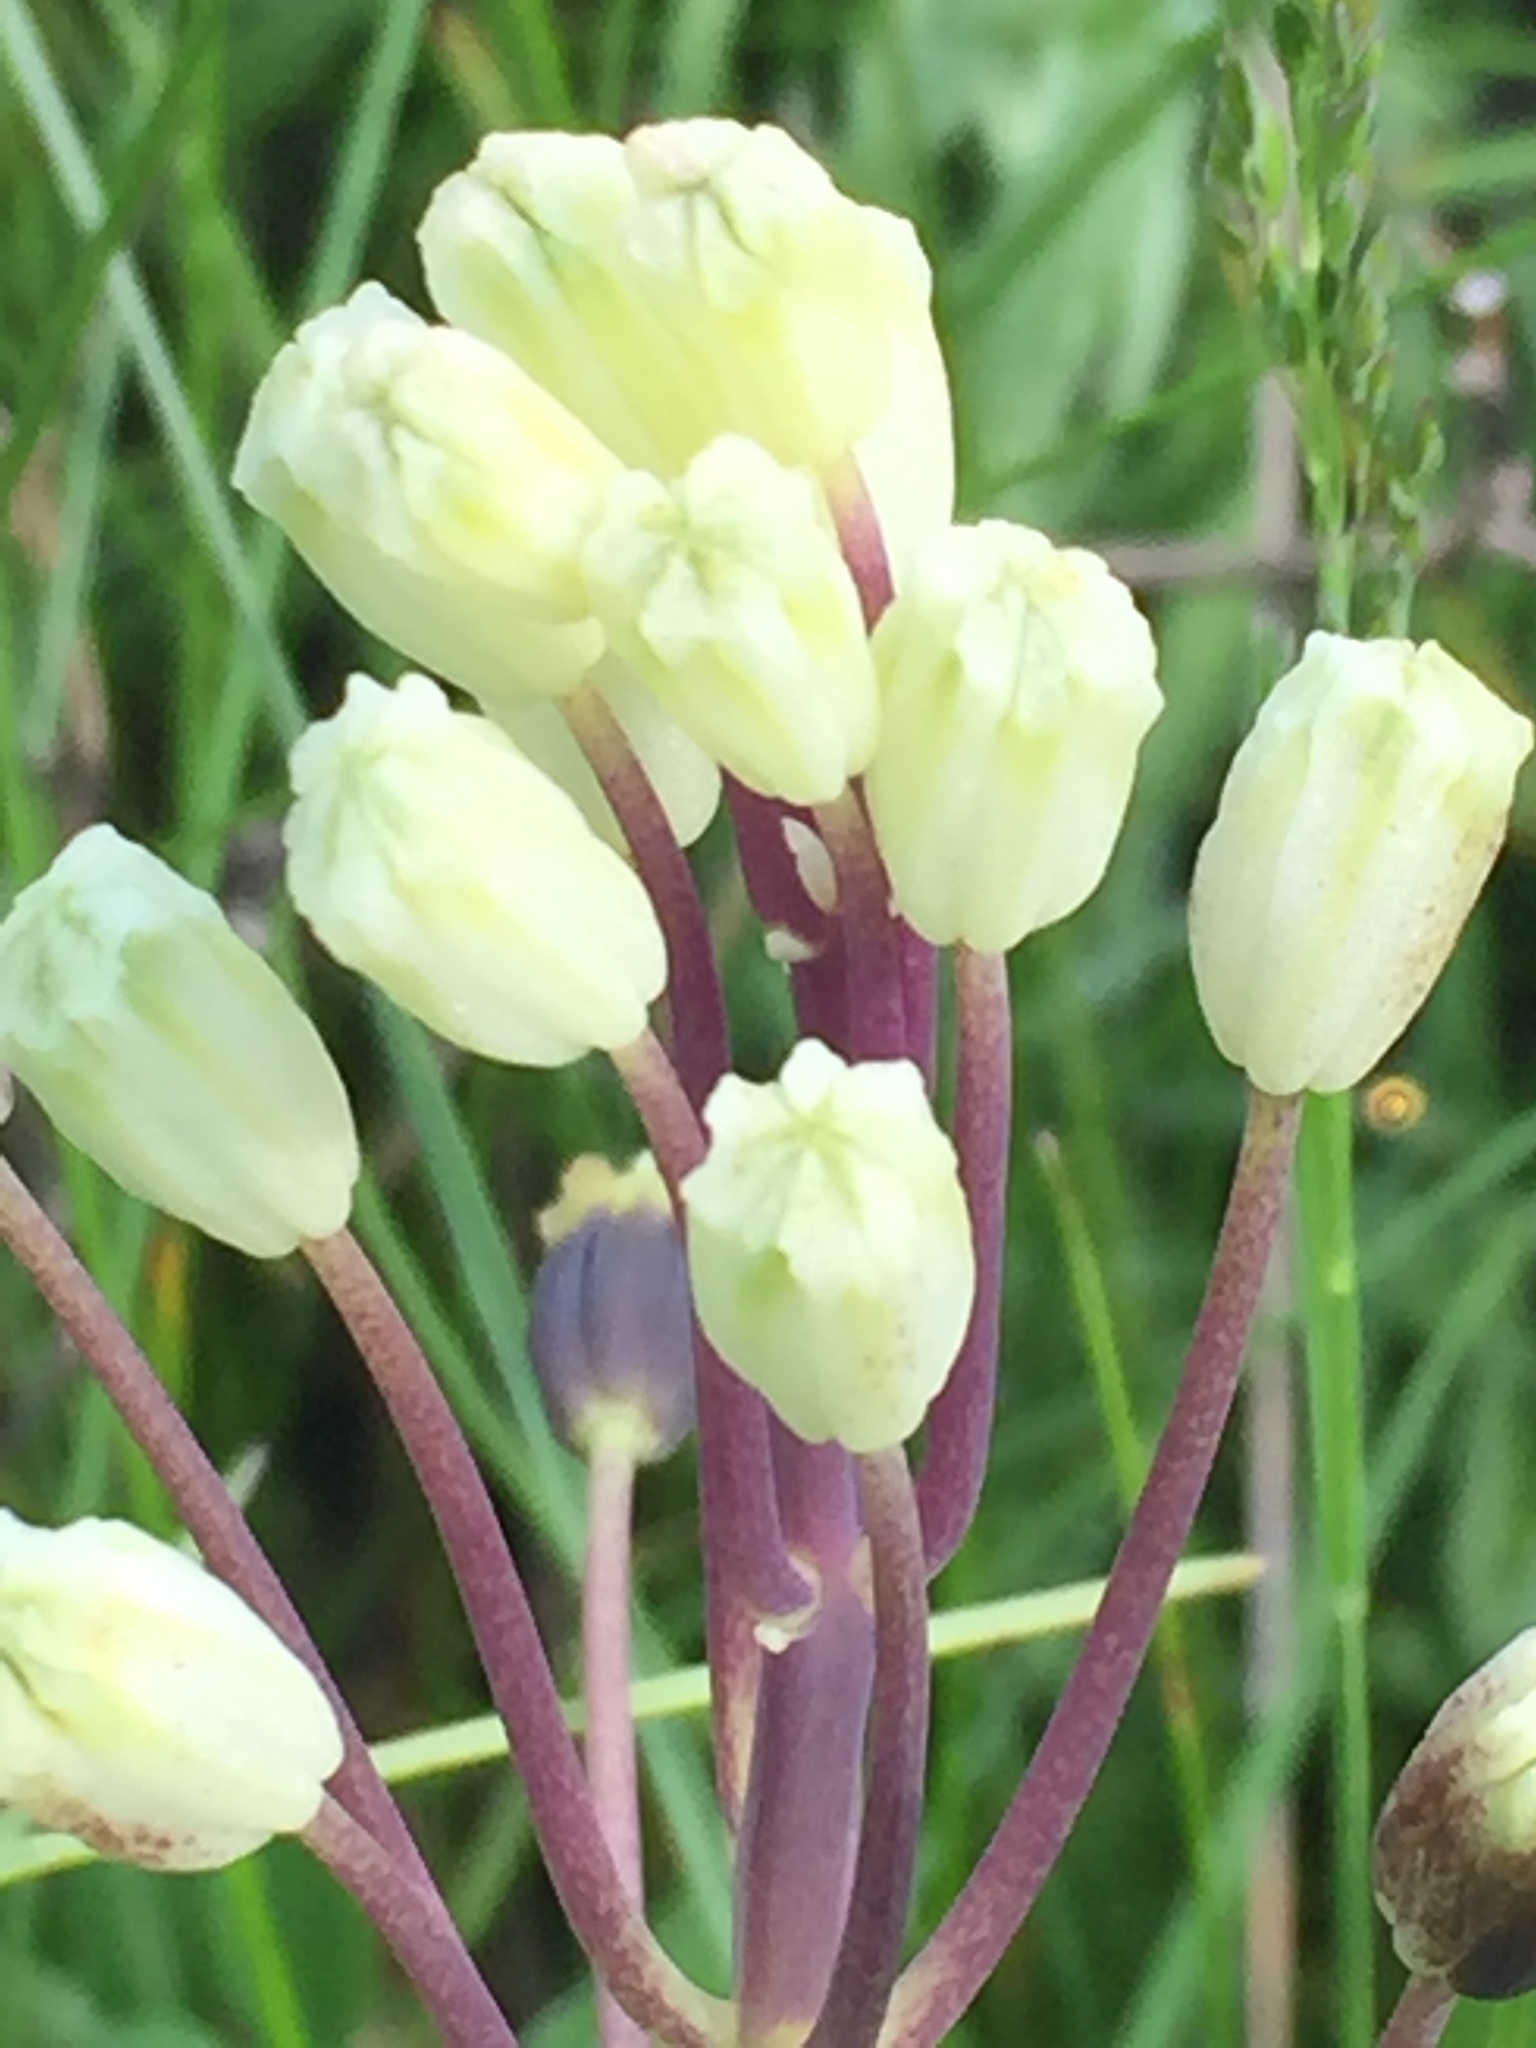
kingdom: Plantae
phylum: Tracheophyta
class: Liliopsida
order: Asparagales
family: Asparagaceae
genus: Bellevalia
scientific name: Bellevalia speciosa
